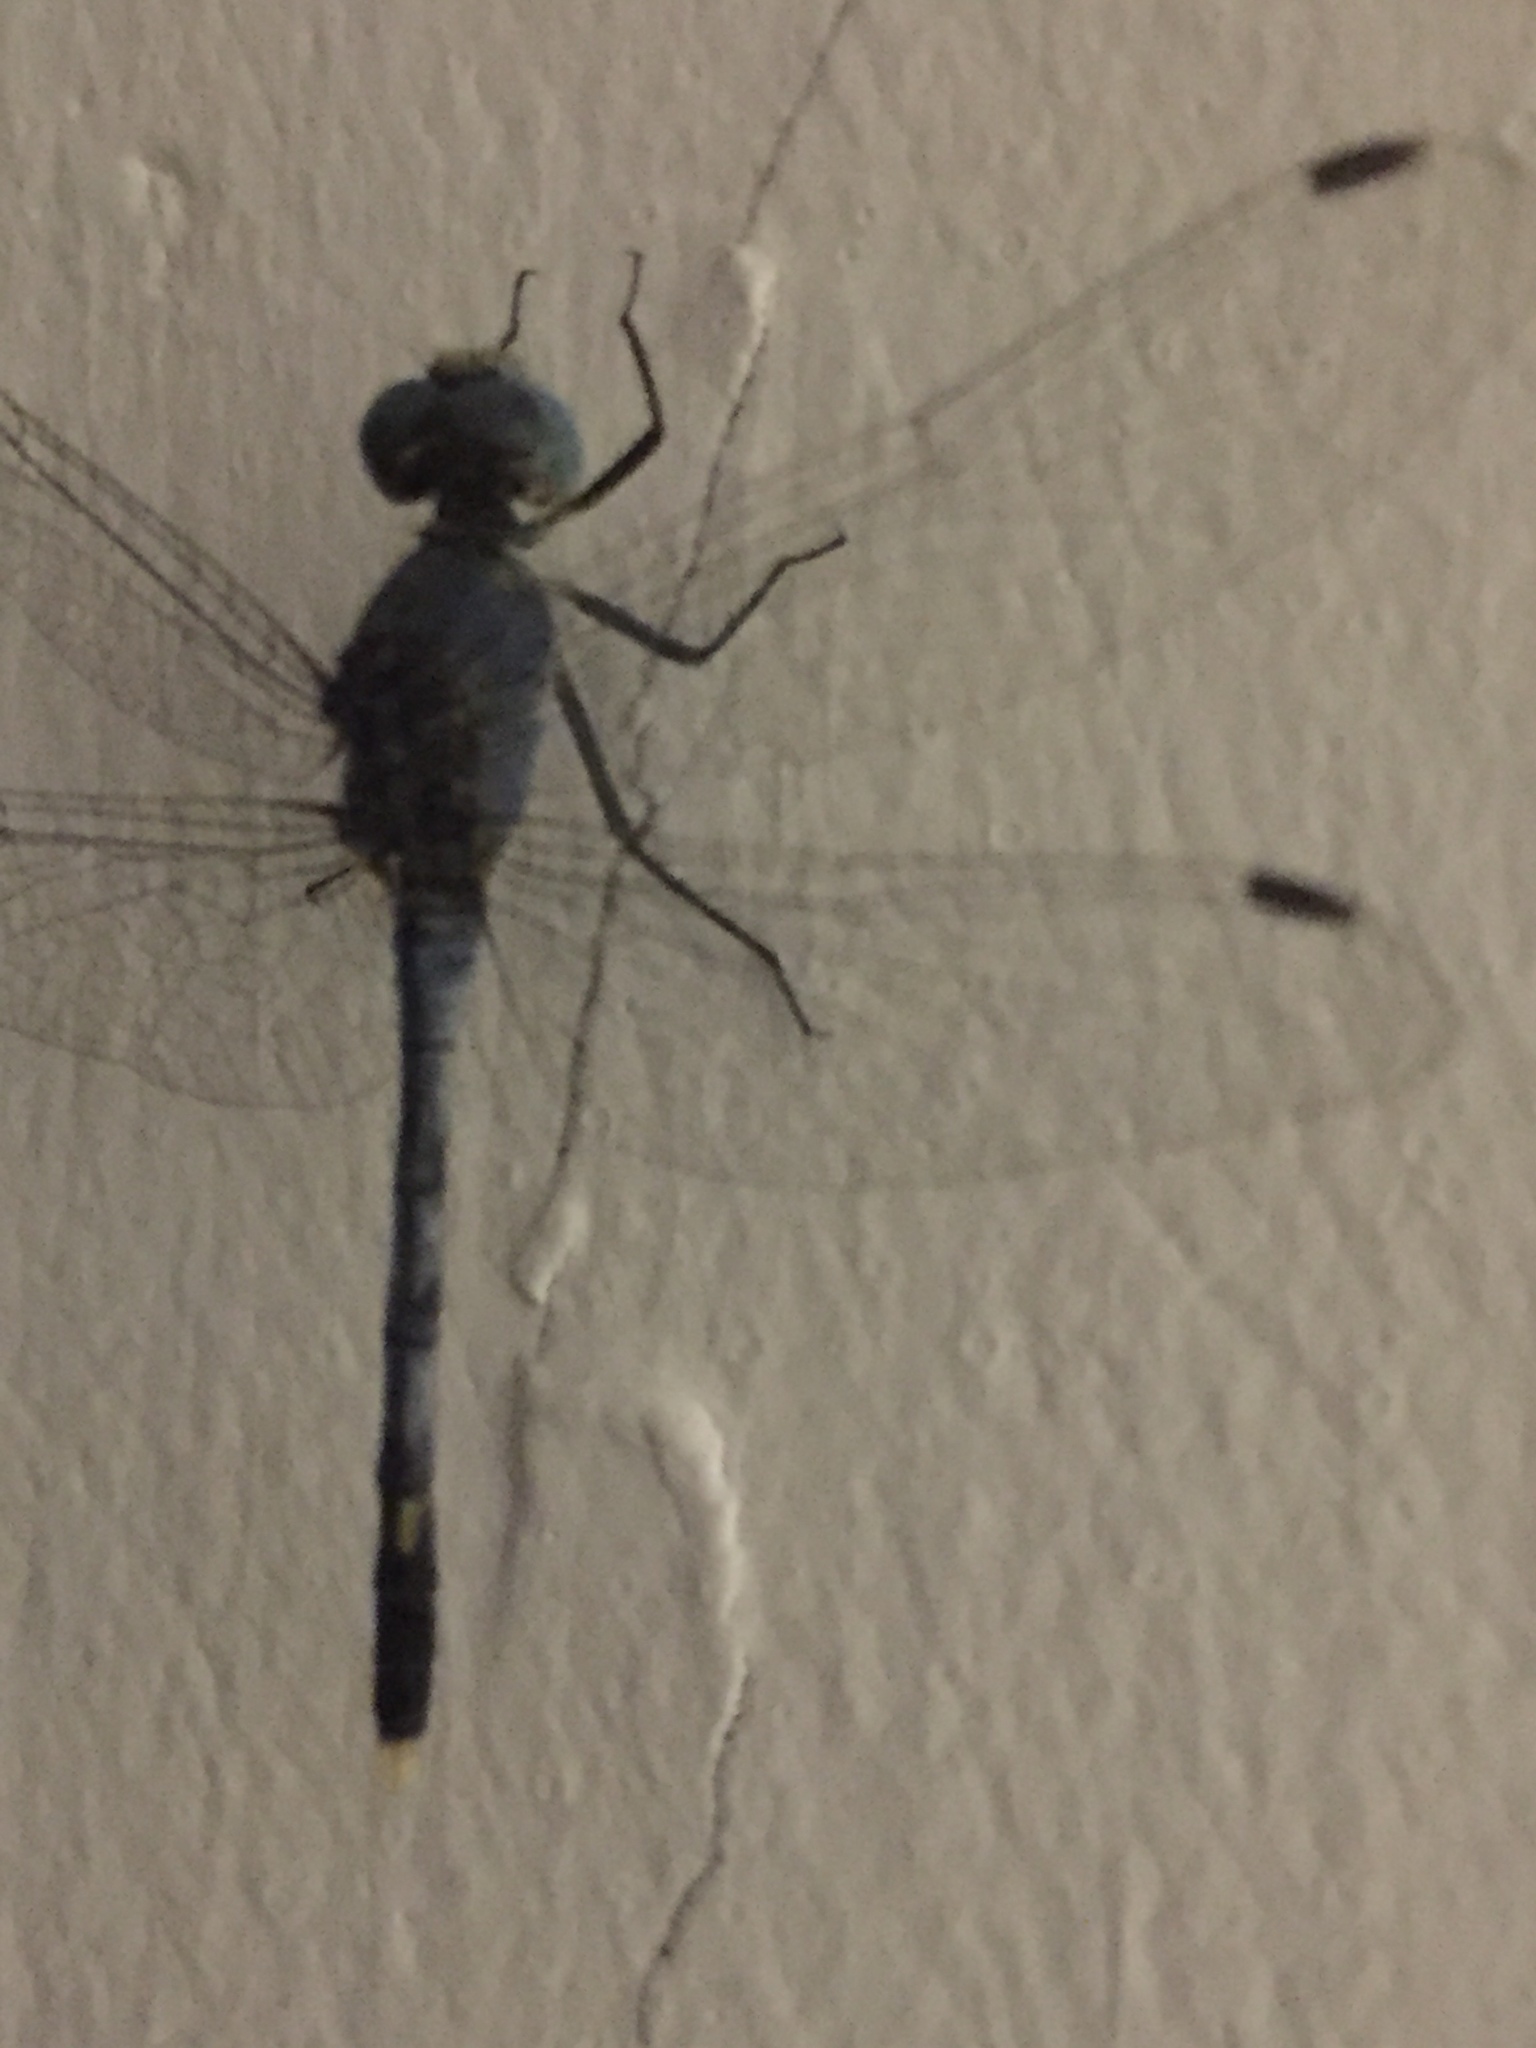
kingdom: Animalia
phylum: Arthropoda
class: Insecta
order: Odonata
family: Libellulidae
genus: Diplacodes
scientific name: Diplacodes trivialis
